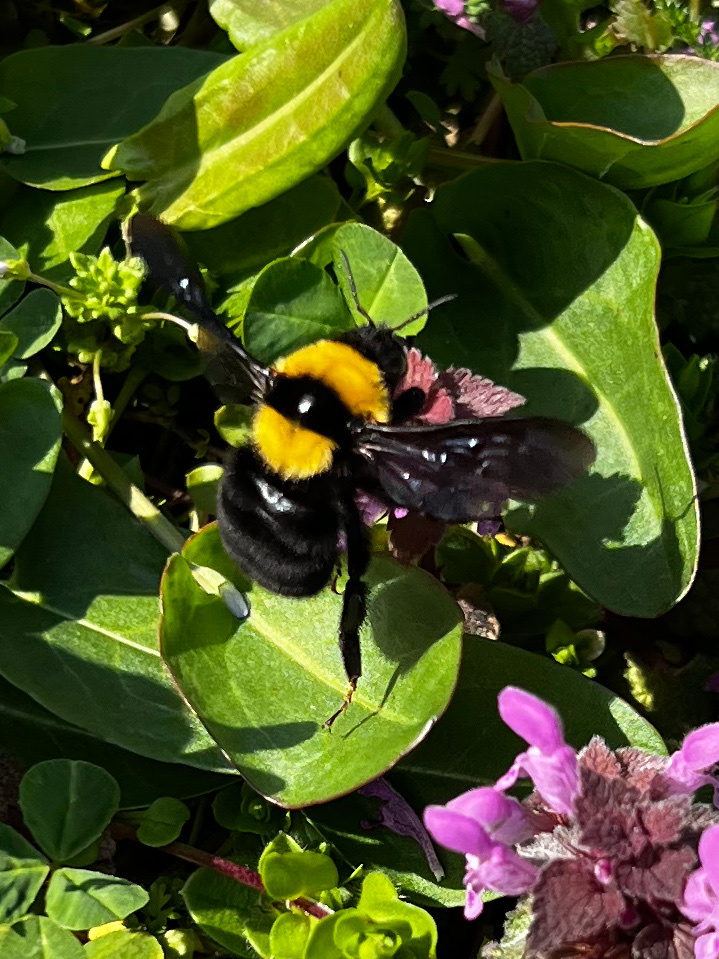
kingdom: Animalia
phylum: Arthropoda
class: Insecta
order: Hymenoptera
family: Apidae
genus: Bombus
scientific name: Bombus argillaceus
